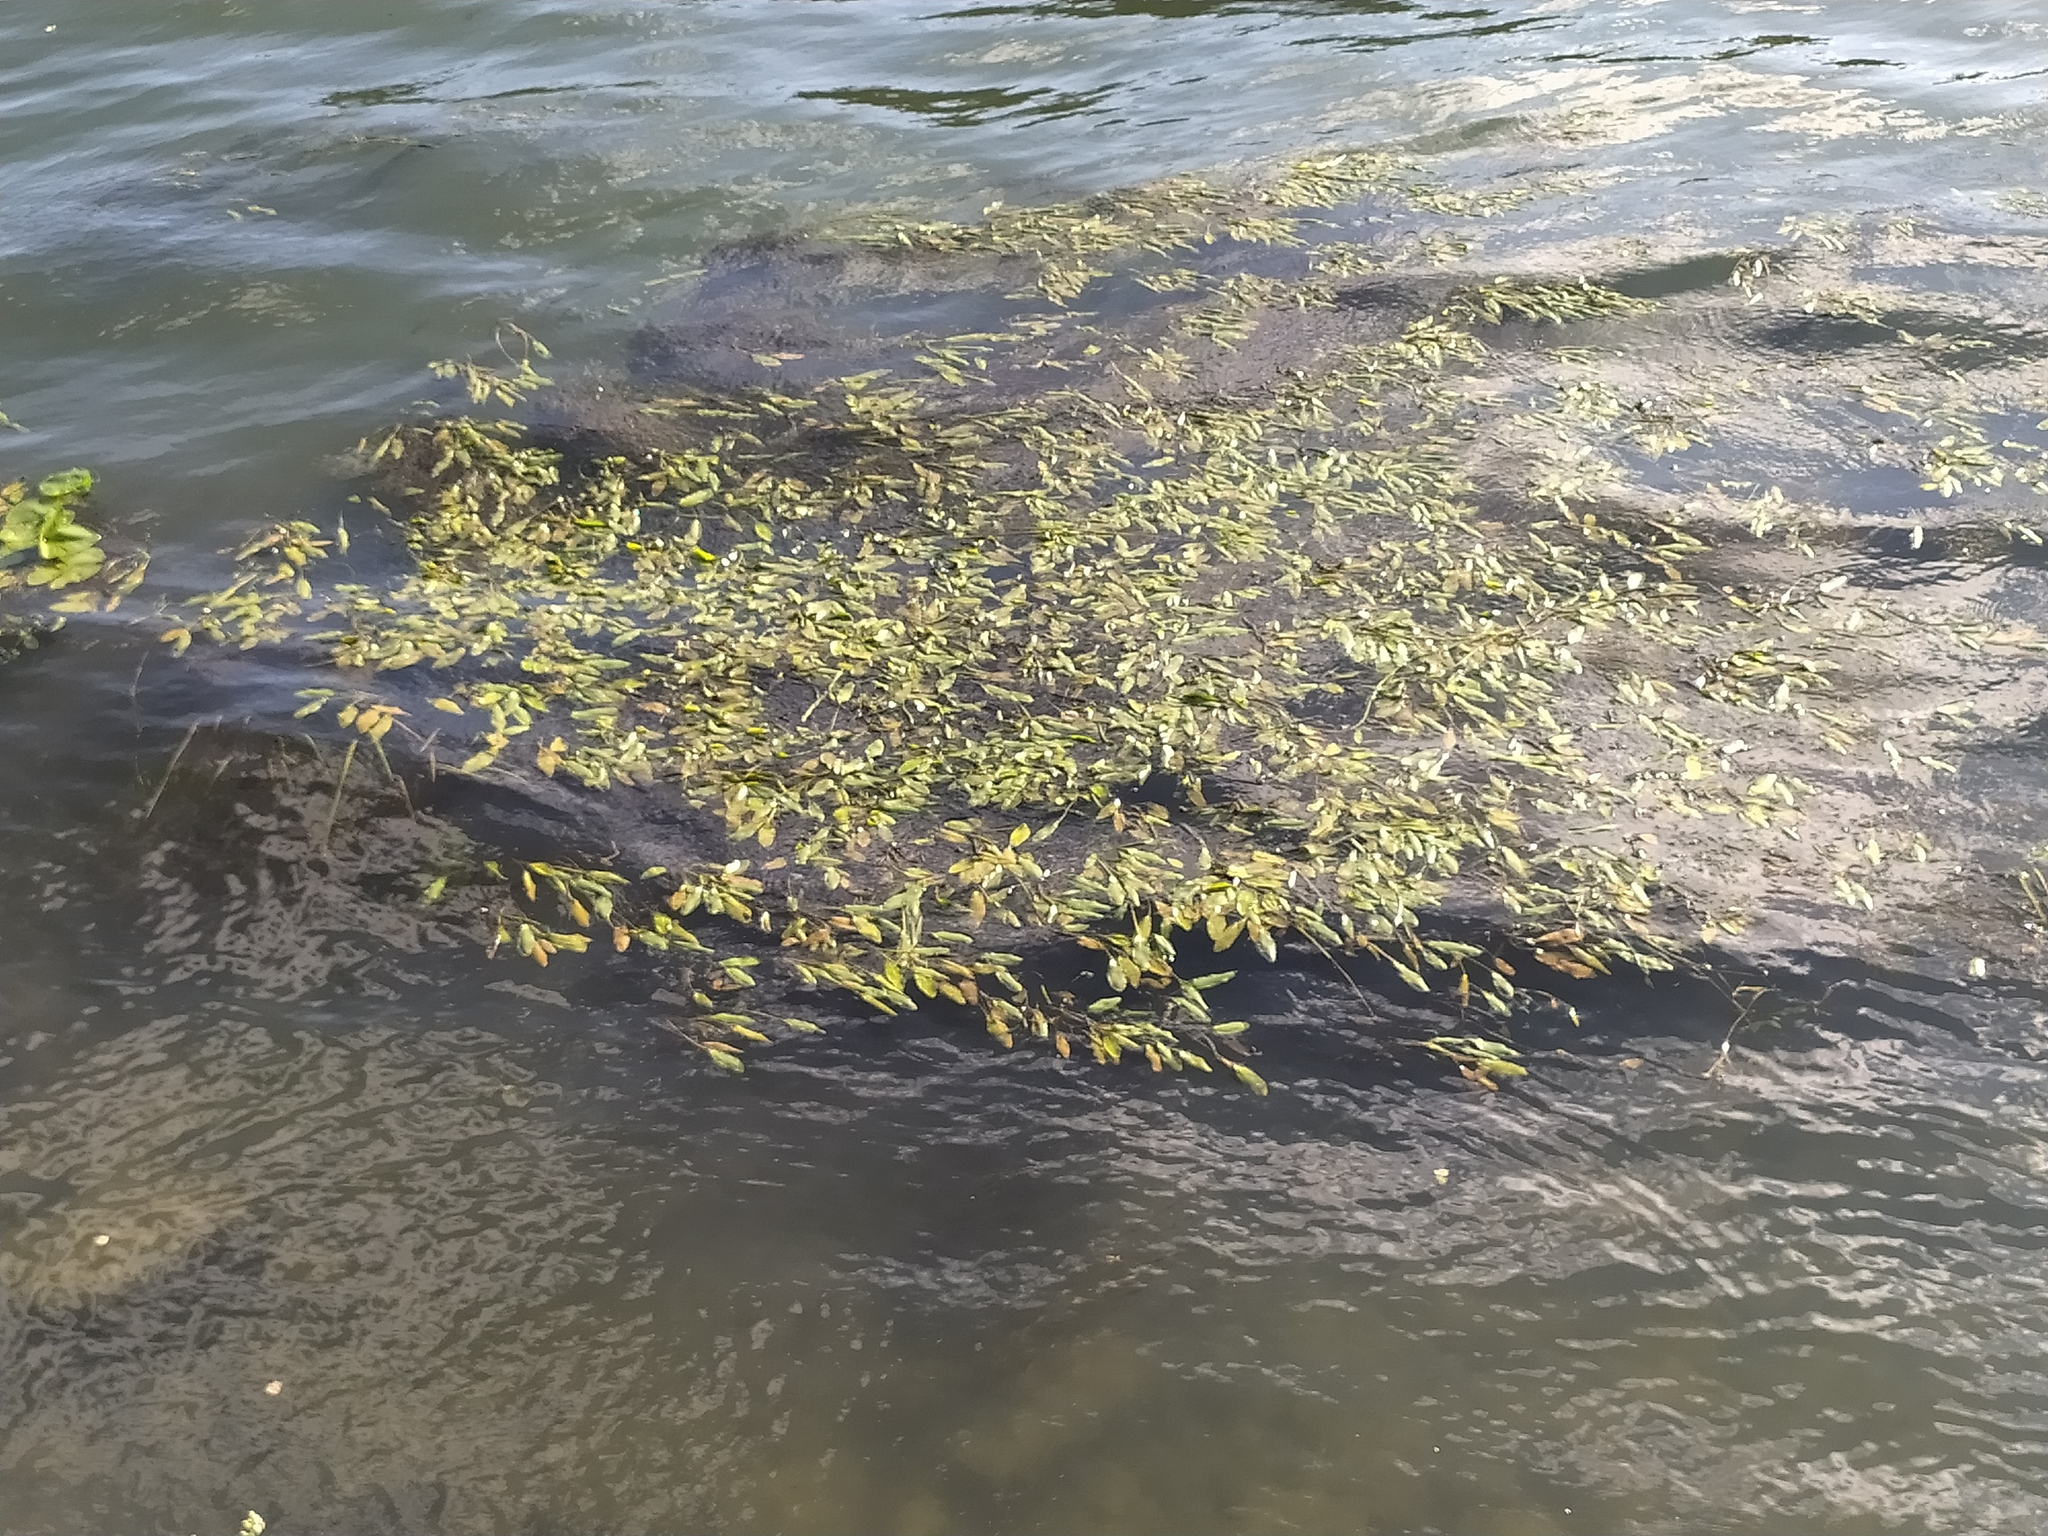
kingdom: Plantae
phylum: Tracheophyta
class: Liliopsida
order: Alismatales
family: Potamogetonaceae
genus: Potamogeton
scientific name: Potamogeton nodosus
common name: Loddon pondweed
